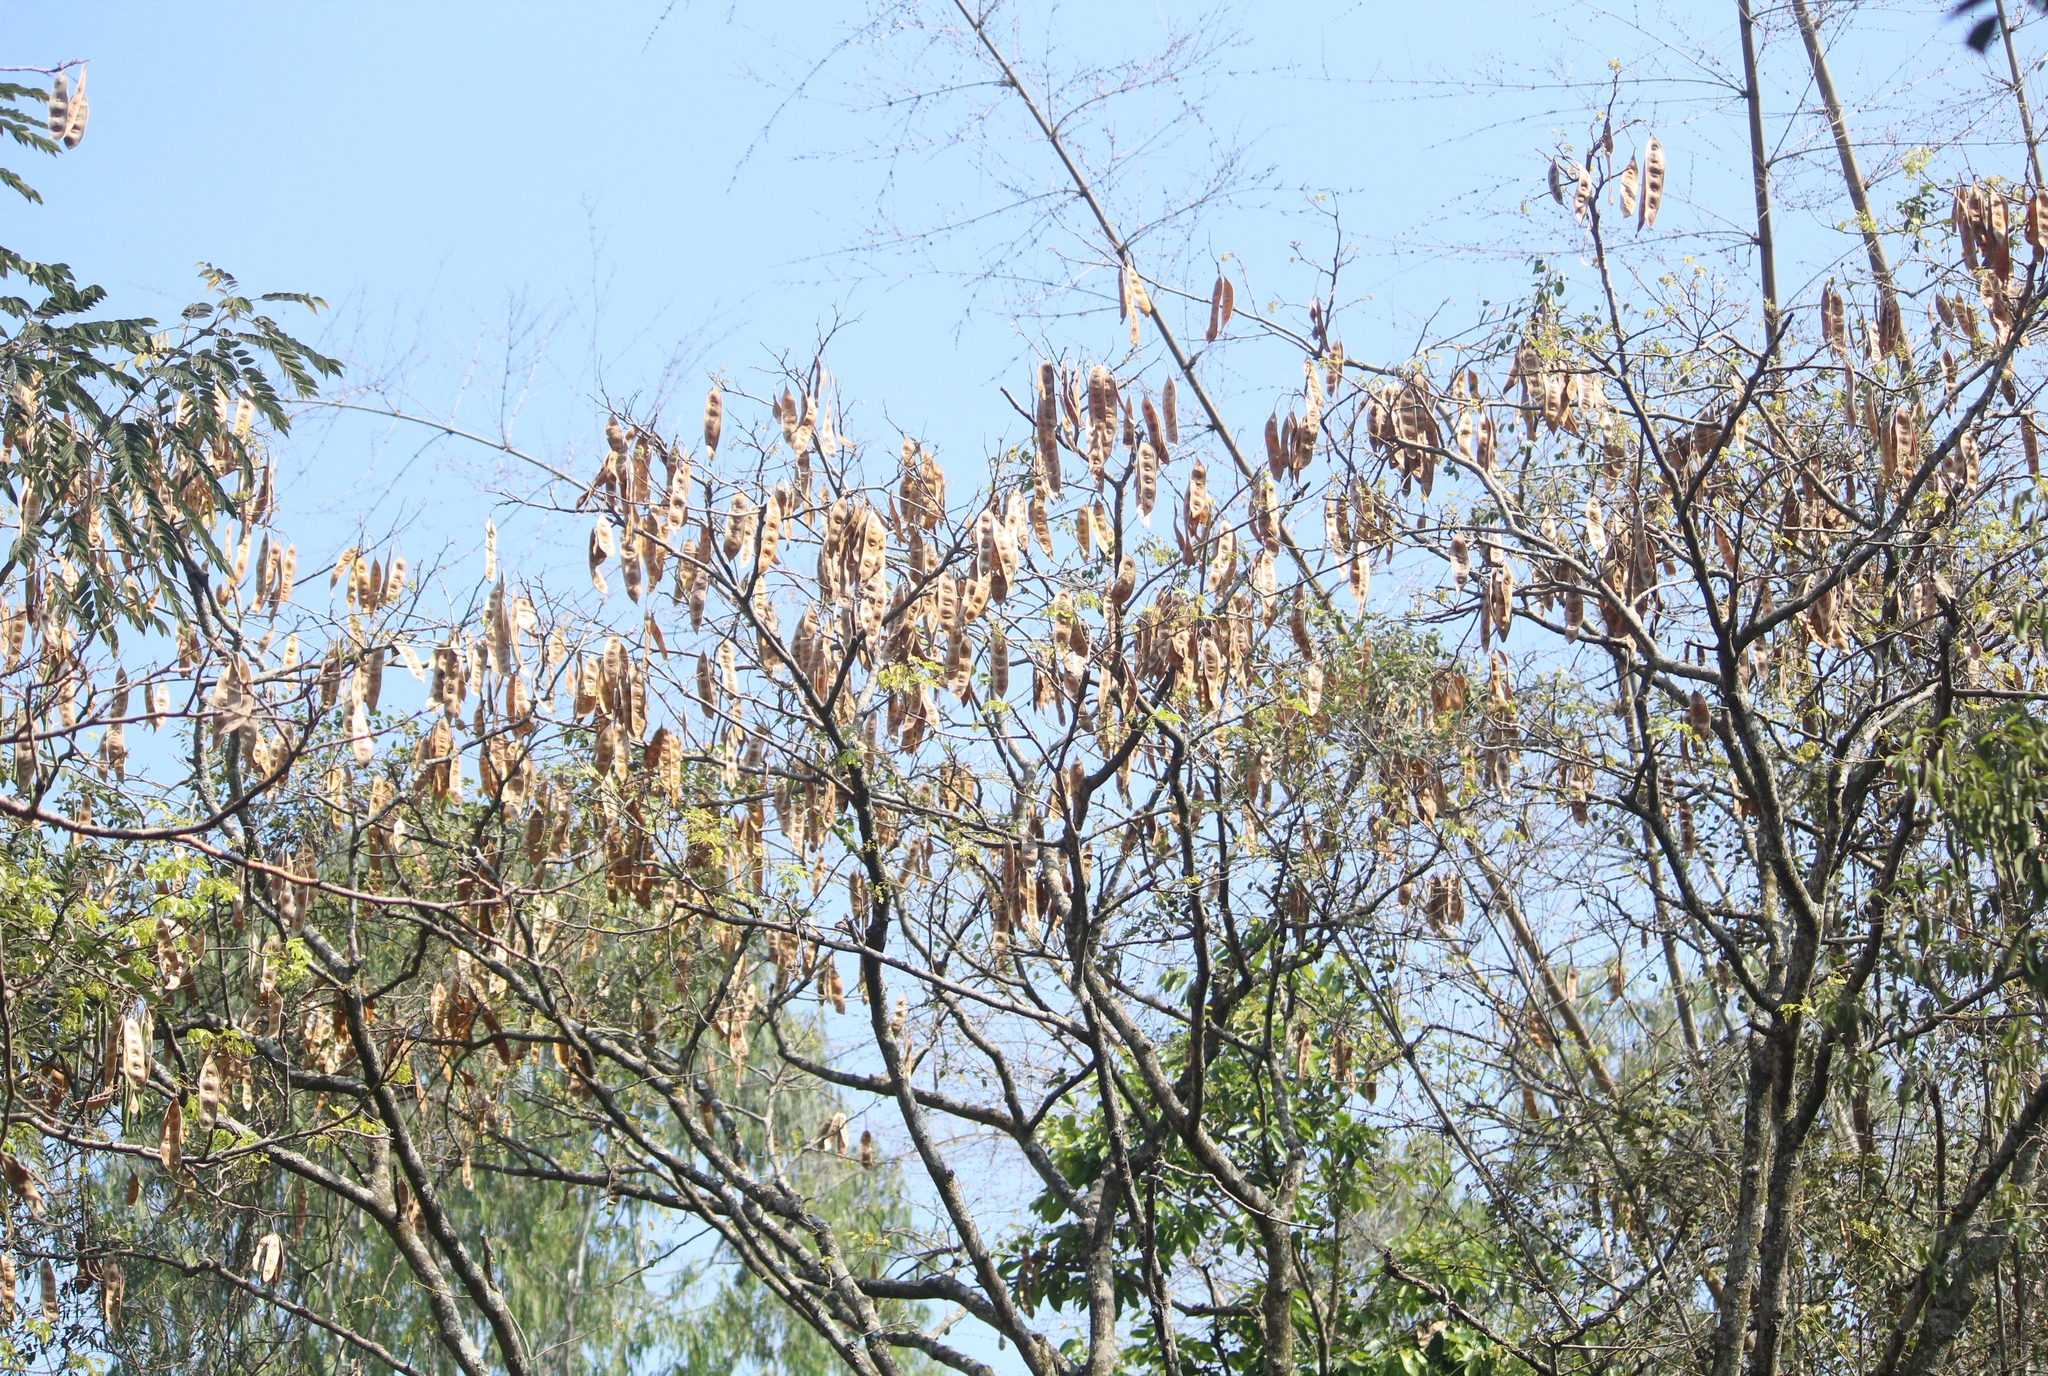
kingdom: Plantae
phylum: Tracheophyta
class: Magnoliopsida
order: Fabales
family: Fabaceae
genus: Albizia
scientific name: Albizia lebbeck
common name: Woman's tongue
